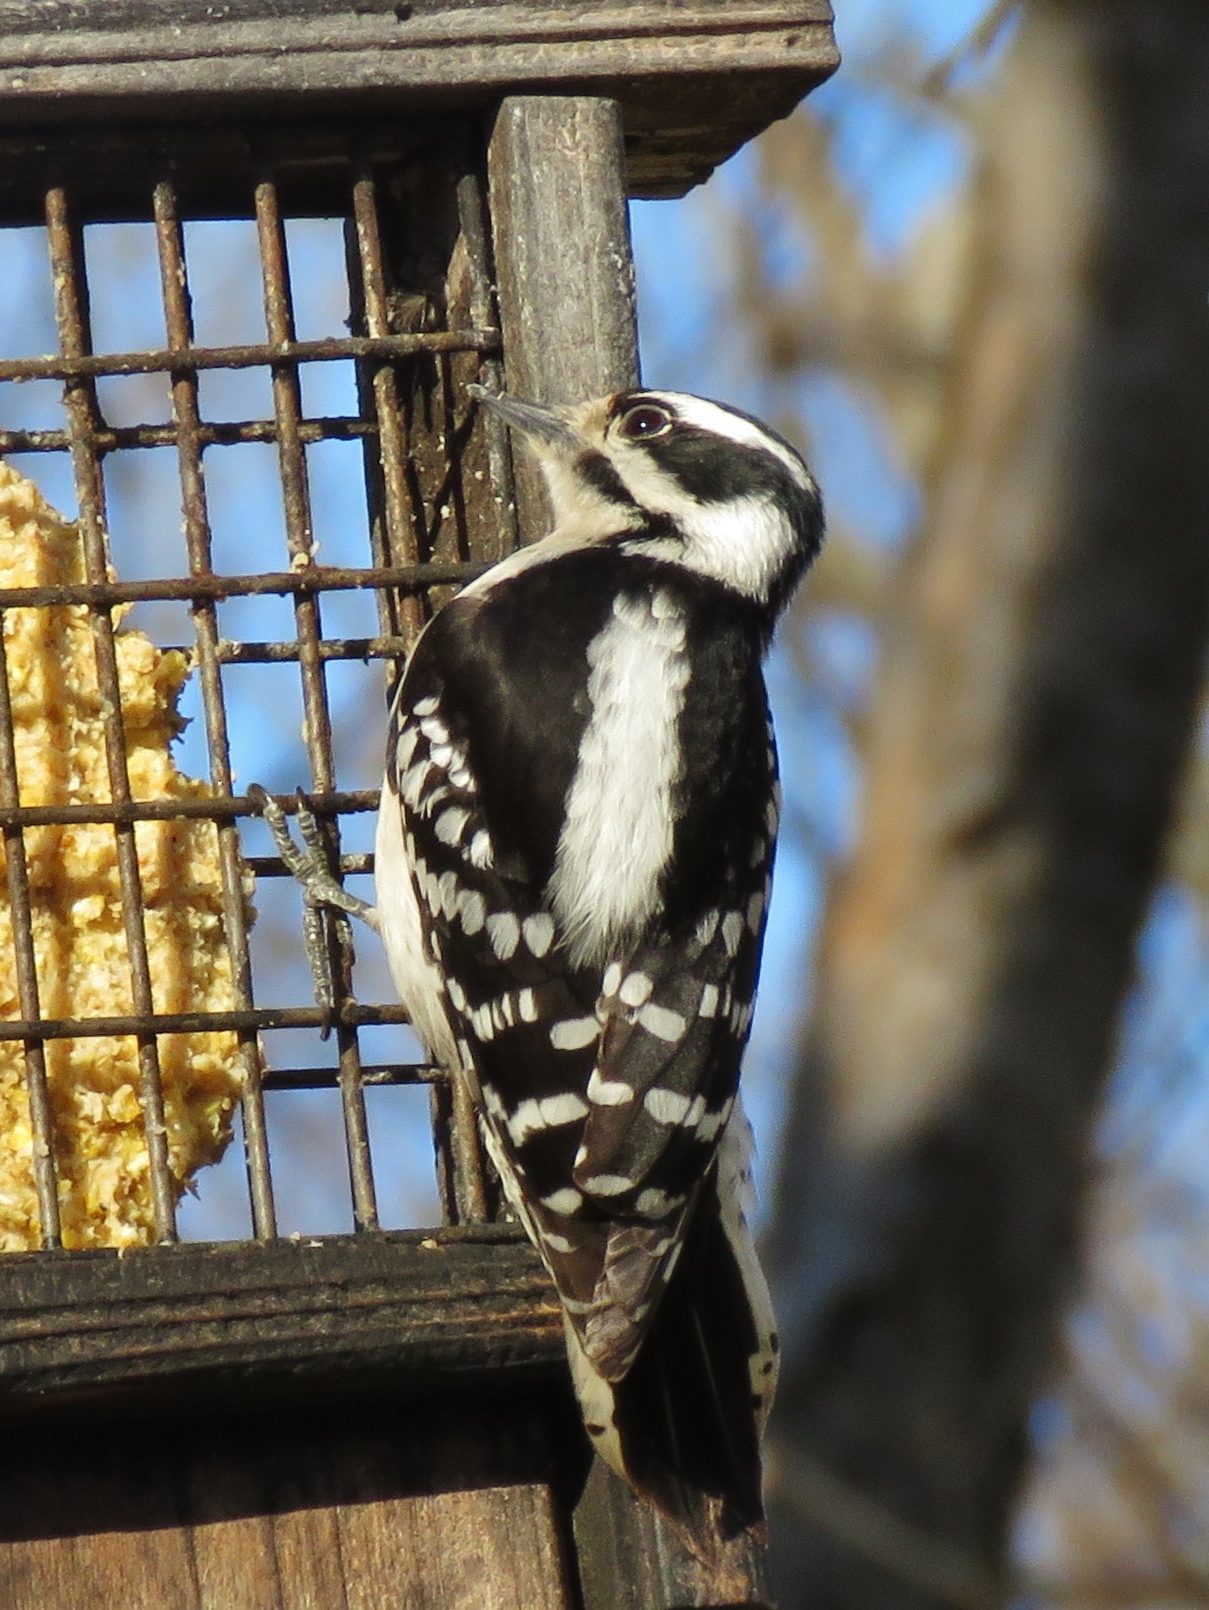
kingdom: Animalia
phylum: Chordata
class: Aves
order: Piciformes
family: Picidae
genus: Dryobates
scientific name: Dryobates pubescens
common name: Downy woodpecker
